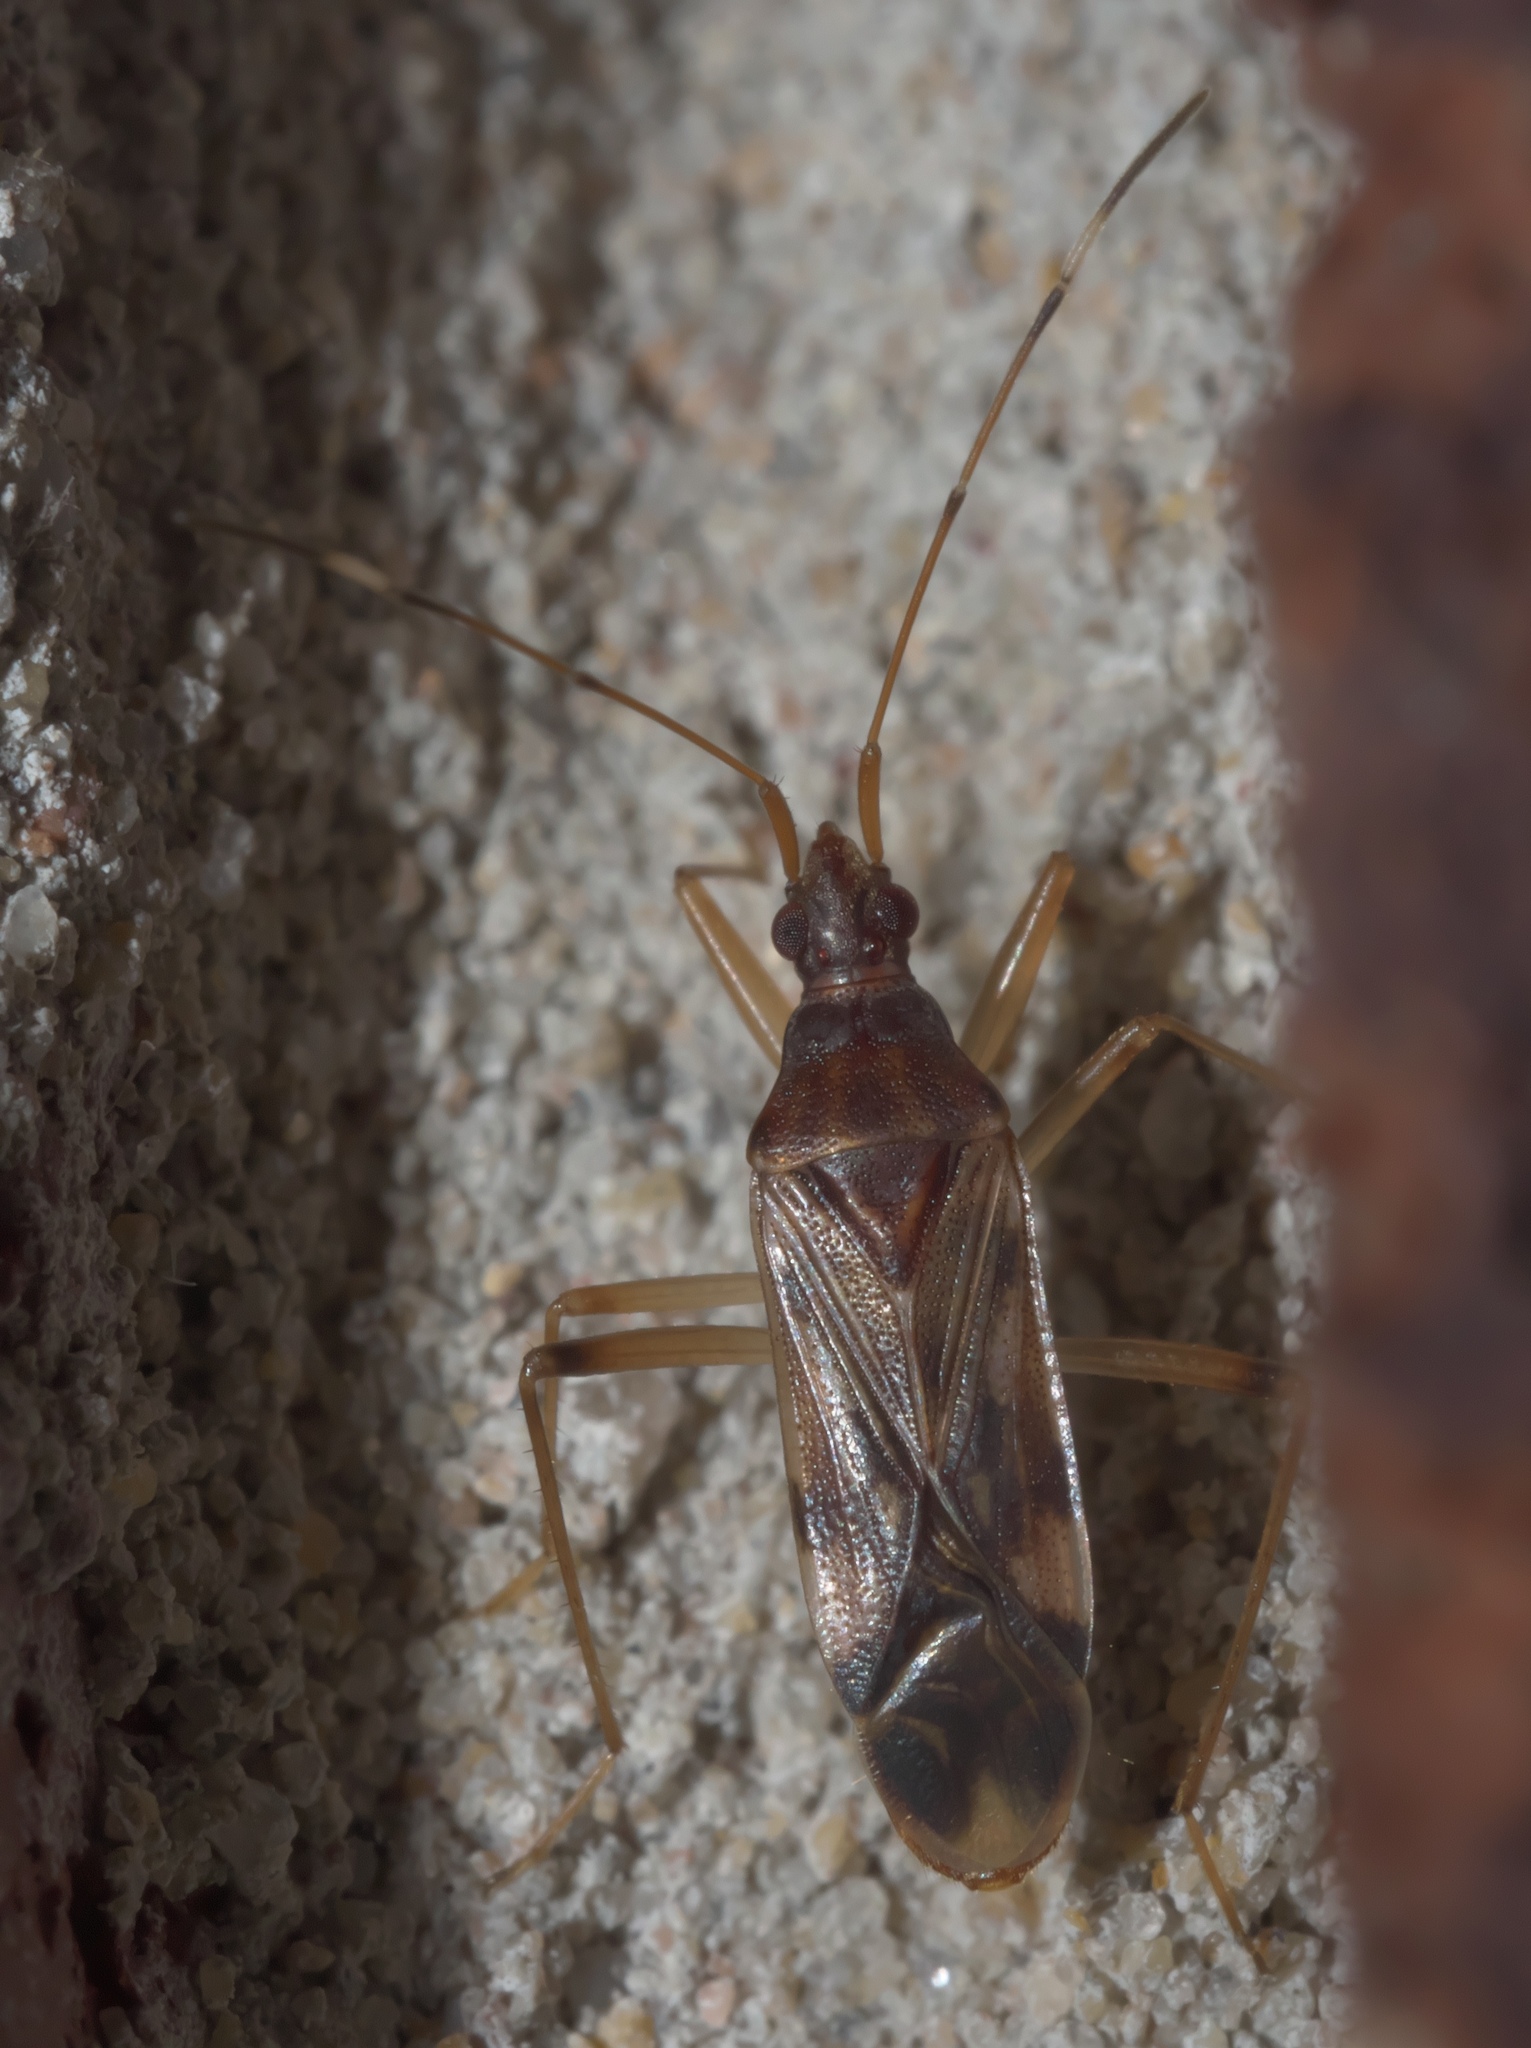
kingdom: Animalia
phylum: Arthropoda
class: Insecta
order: Hemiptera
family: Rhyparochromidae
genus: Ozophora
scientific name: Ozophora depicturata
